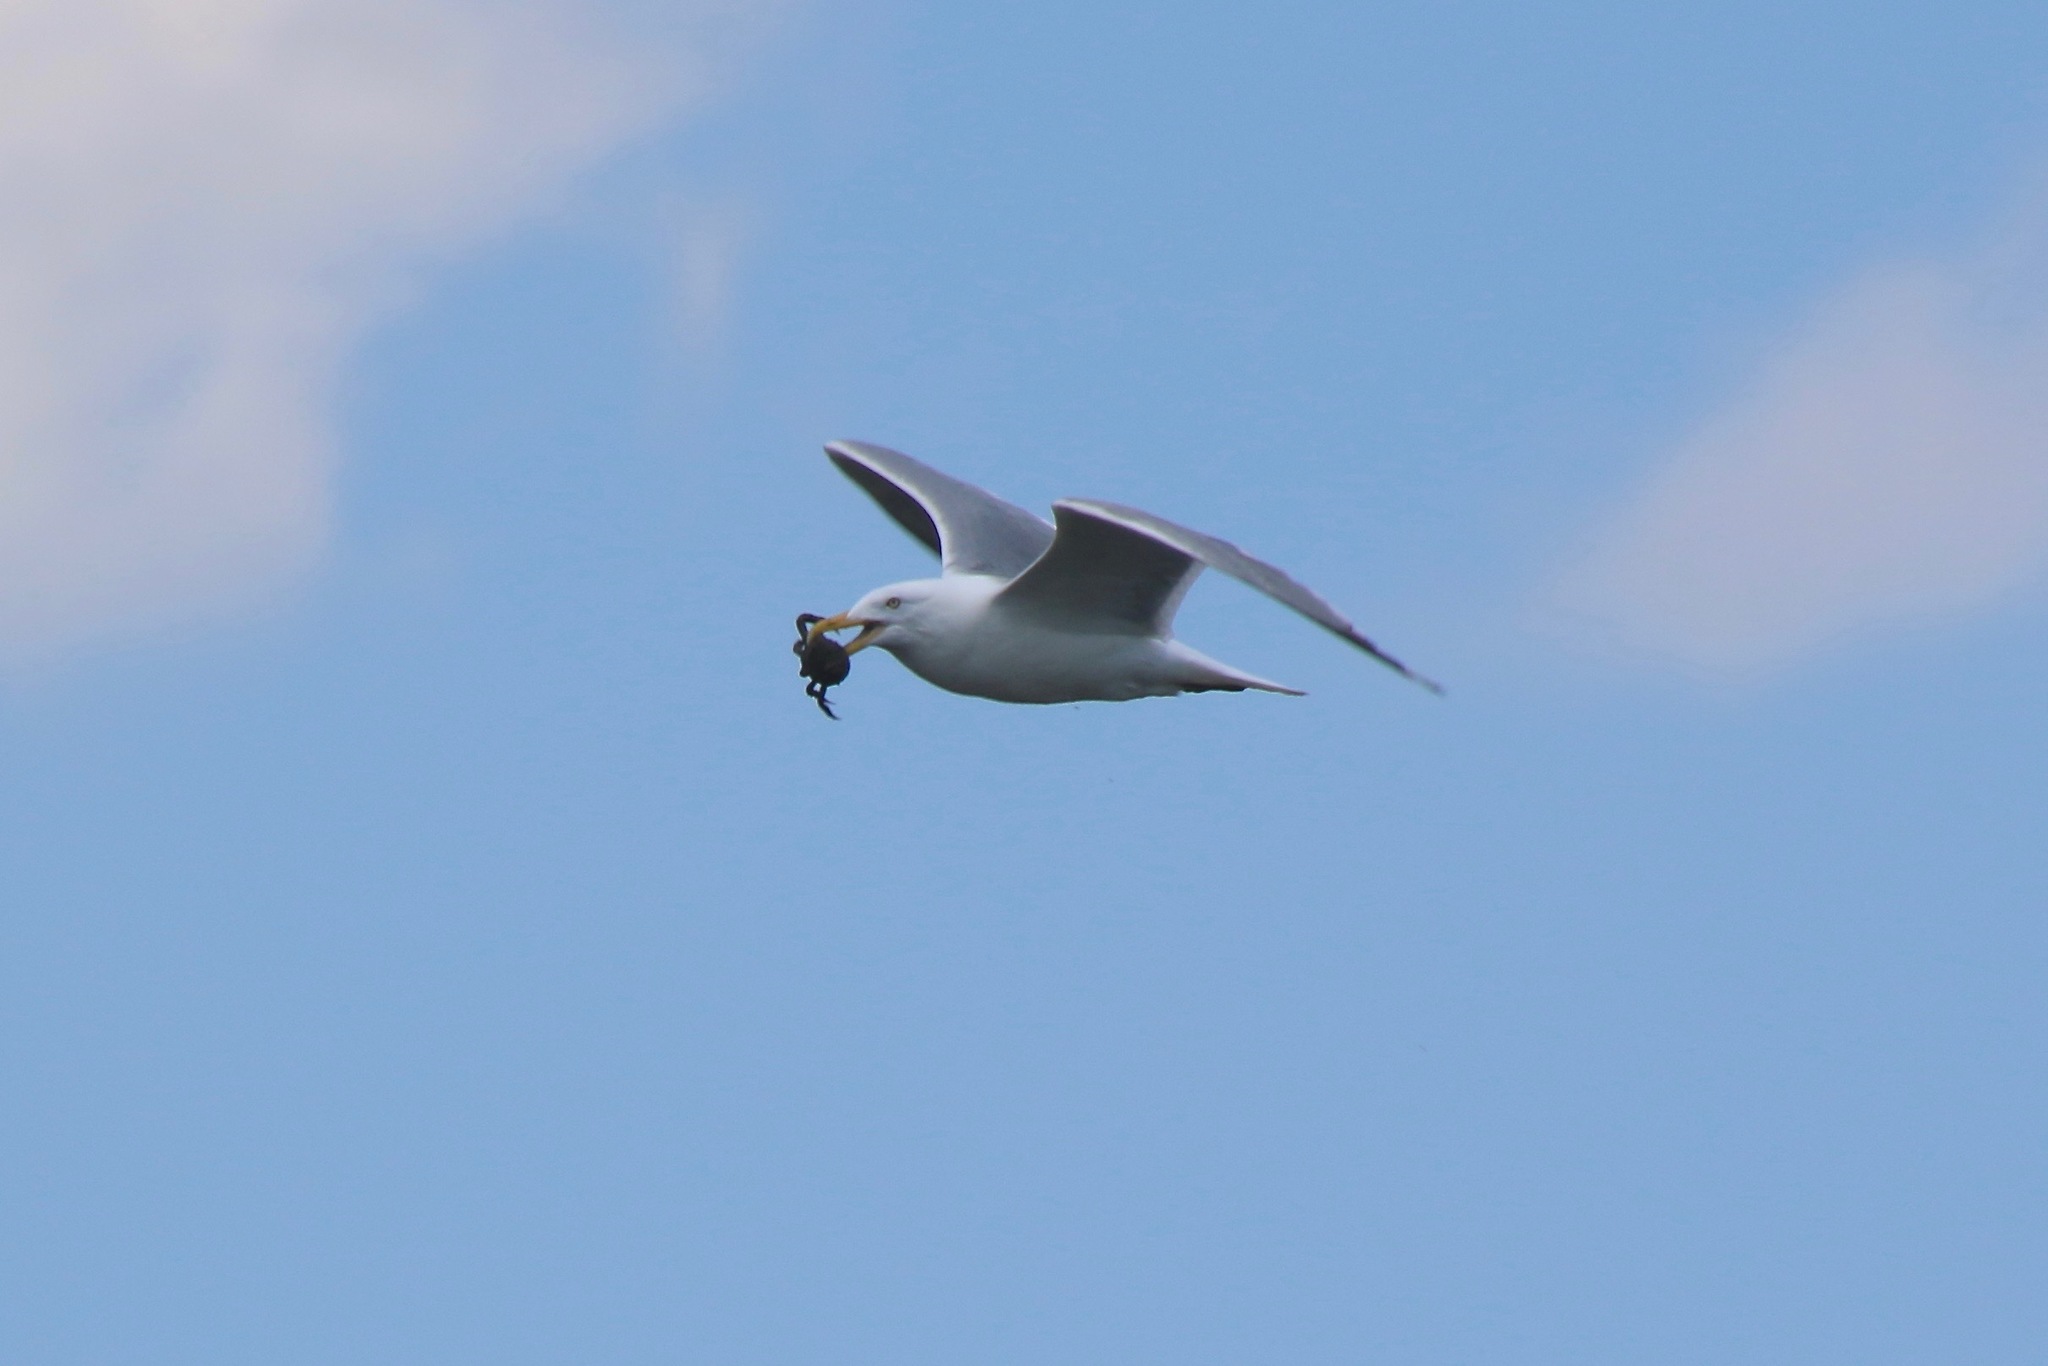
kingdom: Animalia
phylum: Chordata
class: Aves
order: Charadriiformes
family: Laridae
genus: Larus
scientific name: Larus argentatus
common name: Herring gull
